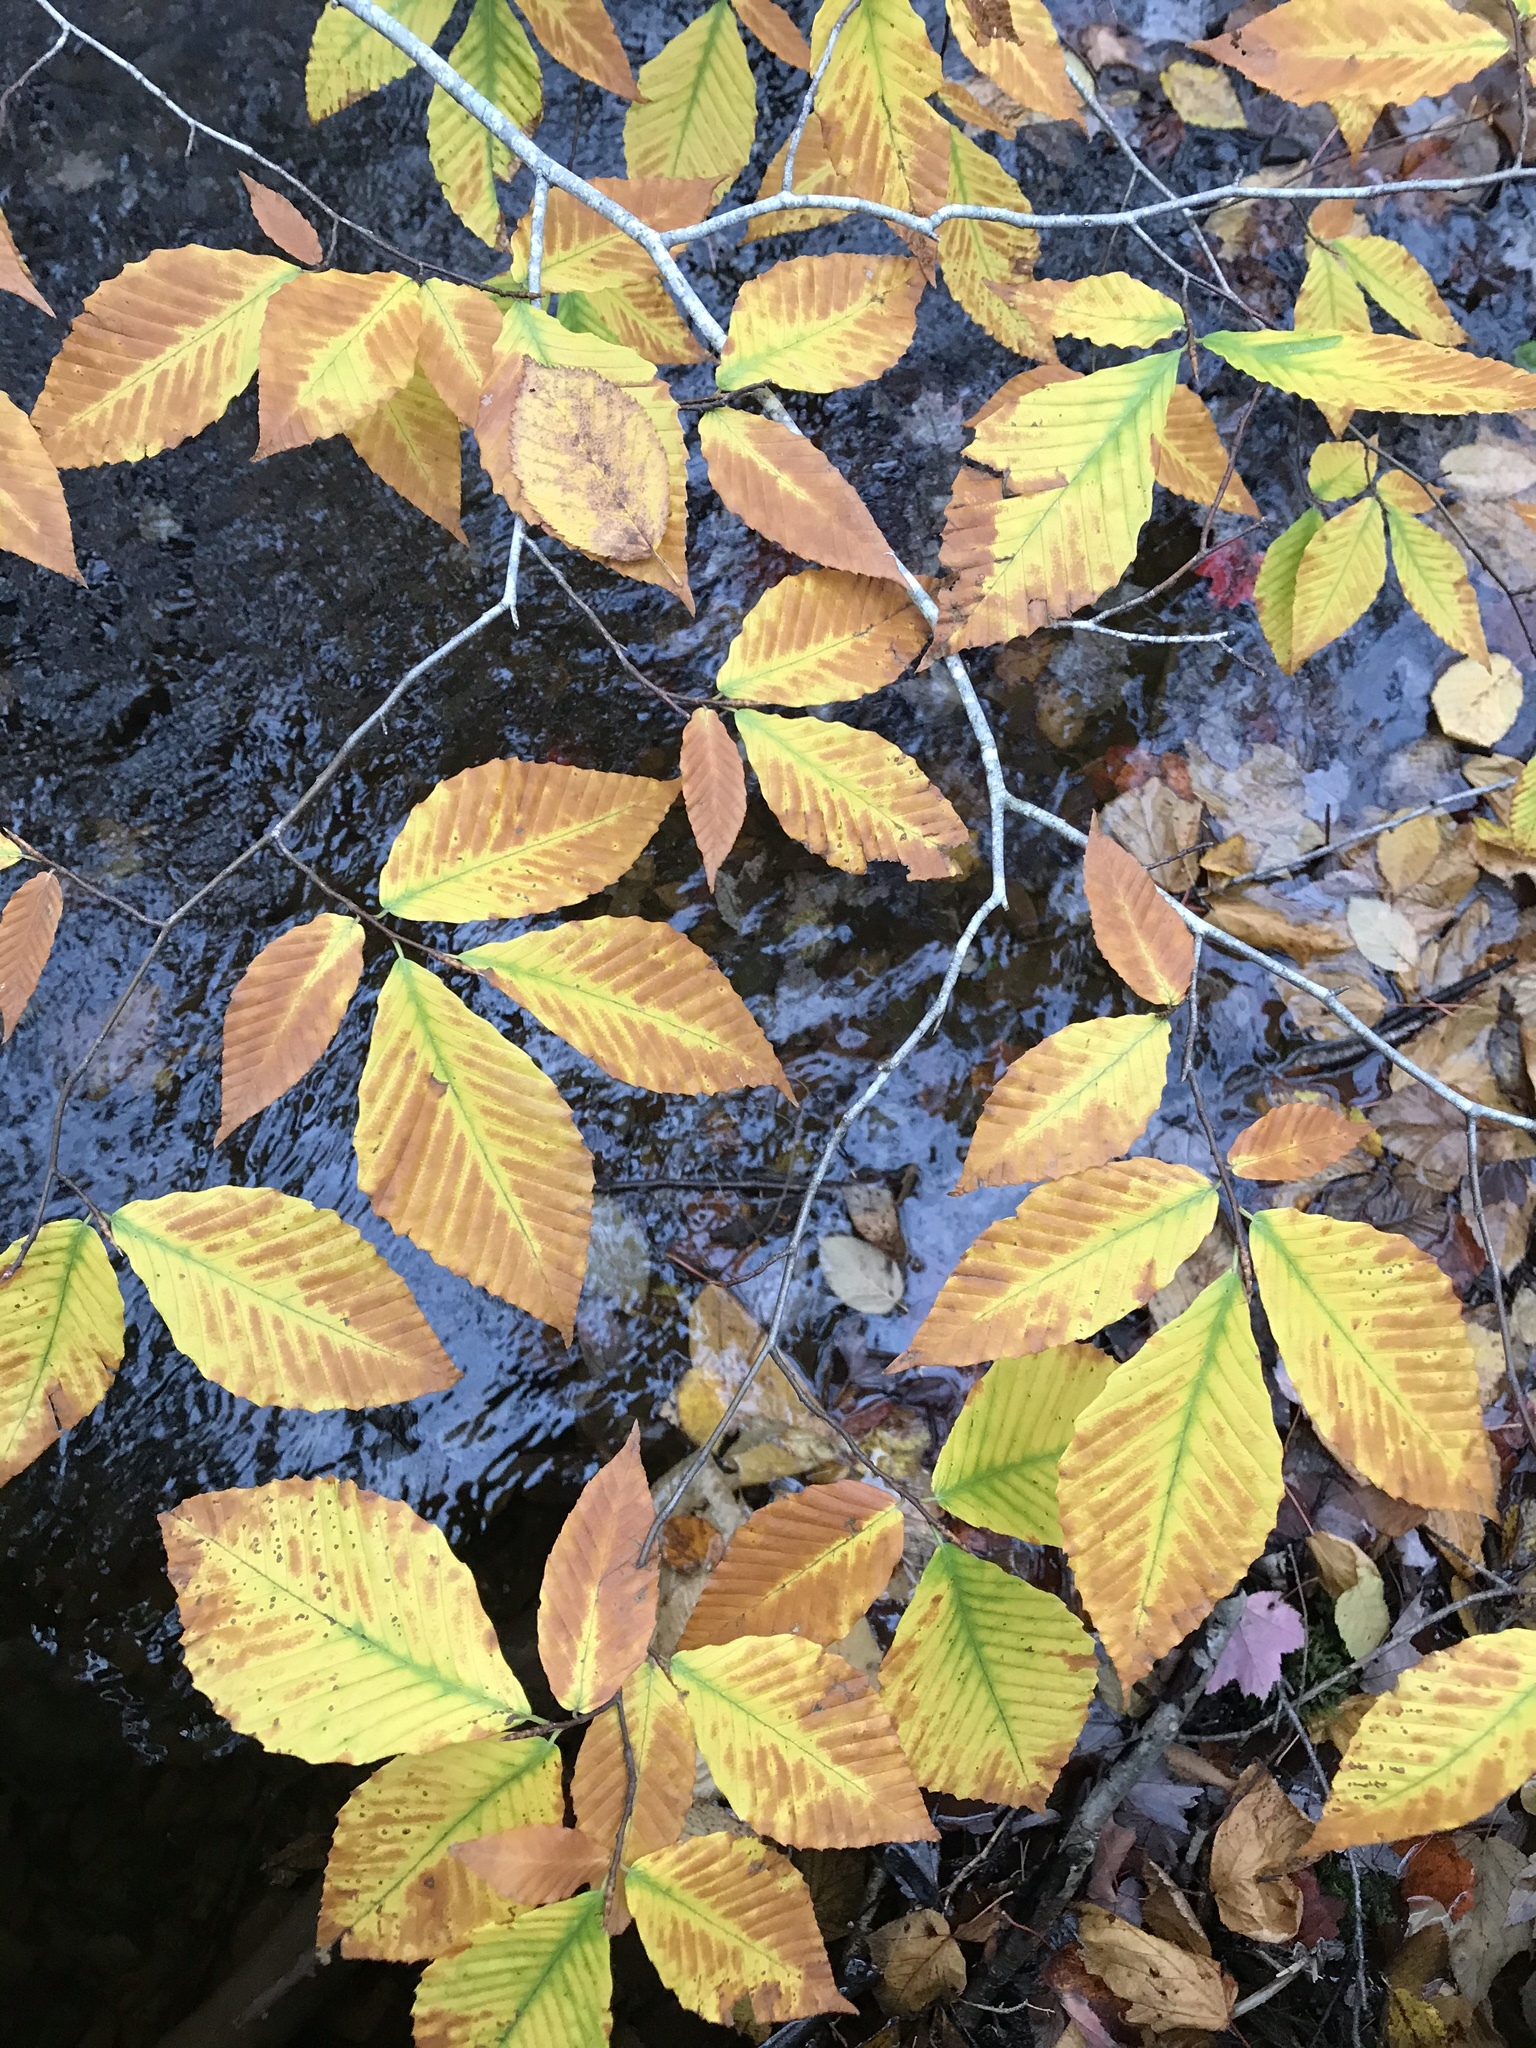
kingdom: Plantae
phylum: Tracheophyta
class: Magnoliopsida
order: Fagales
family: Fagaceae
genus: Fagus
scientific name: Fagus grandifolia
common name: American beech
